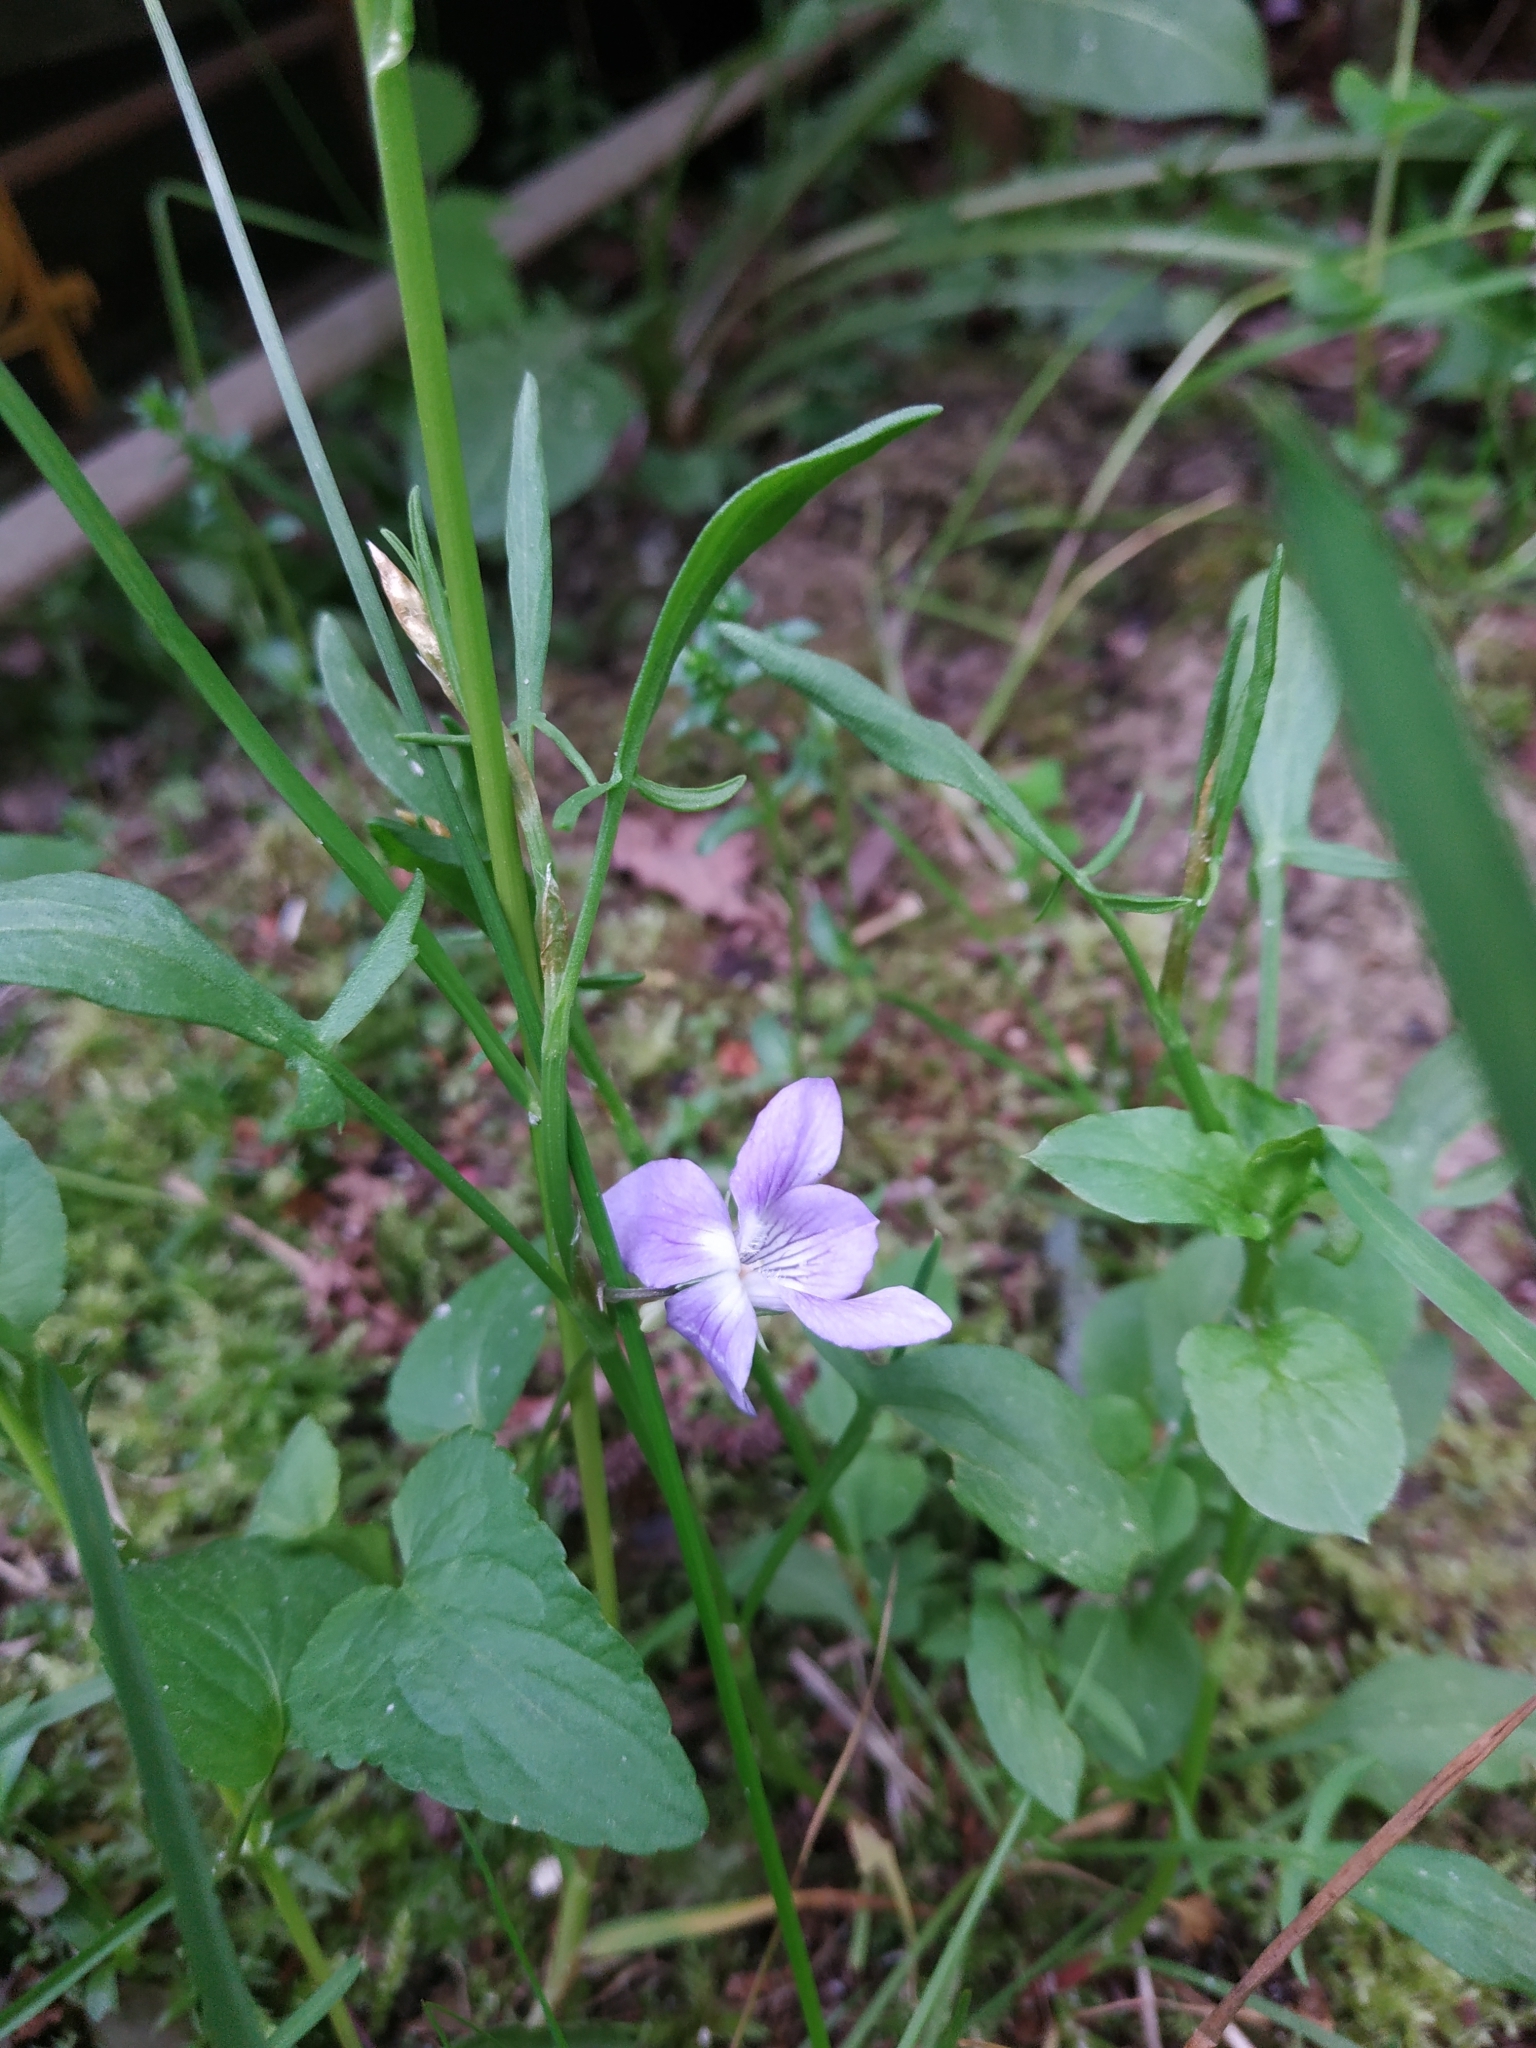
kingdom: Plantae
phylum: Tracheophyta
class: Magnoliopsida
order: Malpighiales
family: Violaceae
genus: Viola
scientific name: Viola
